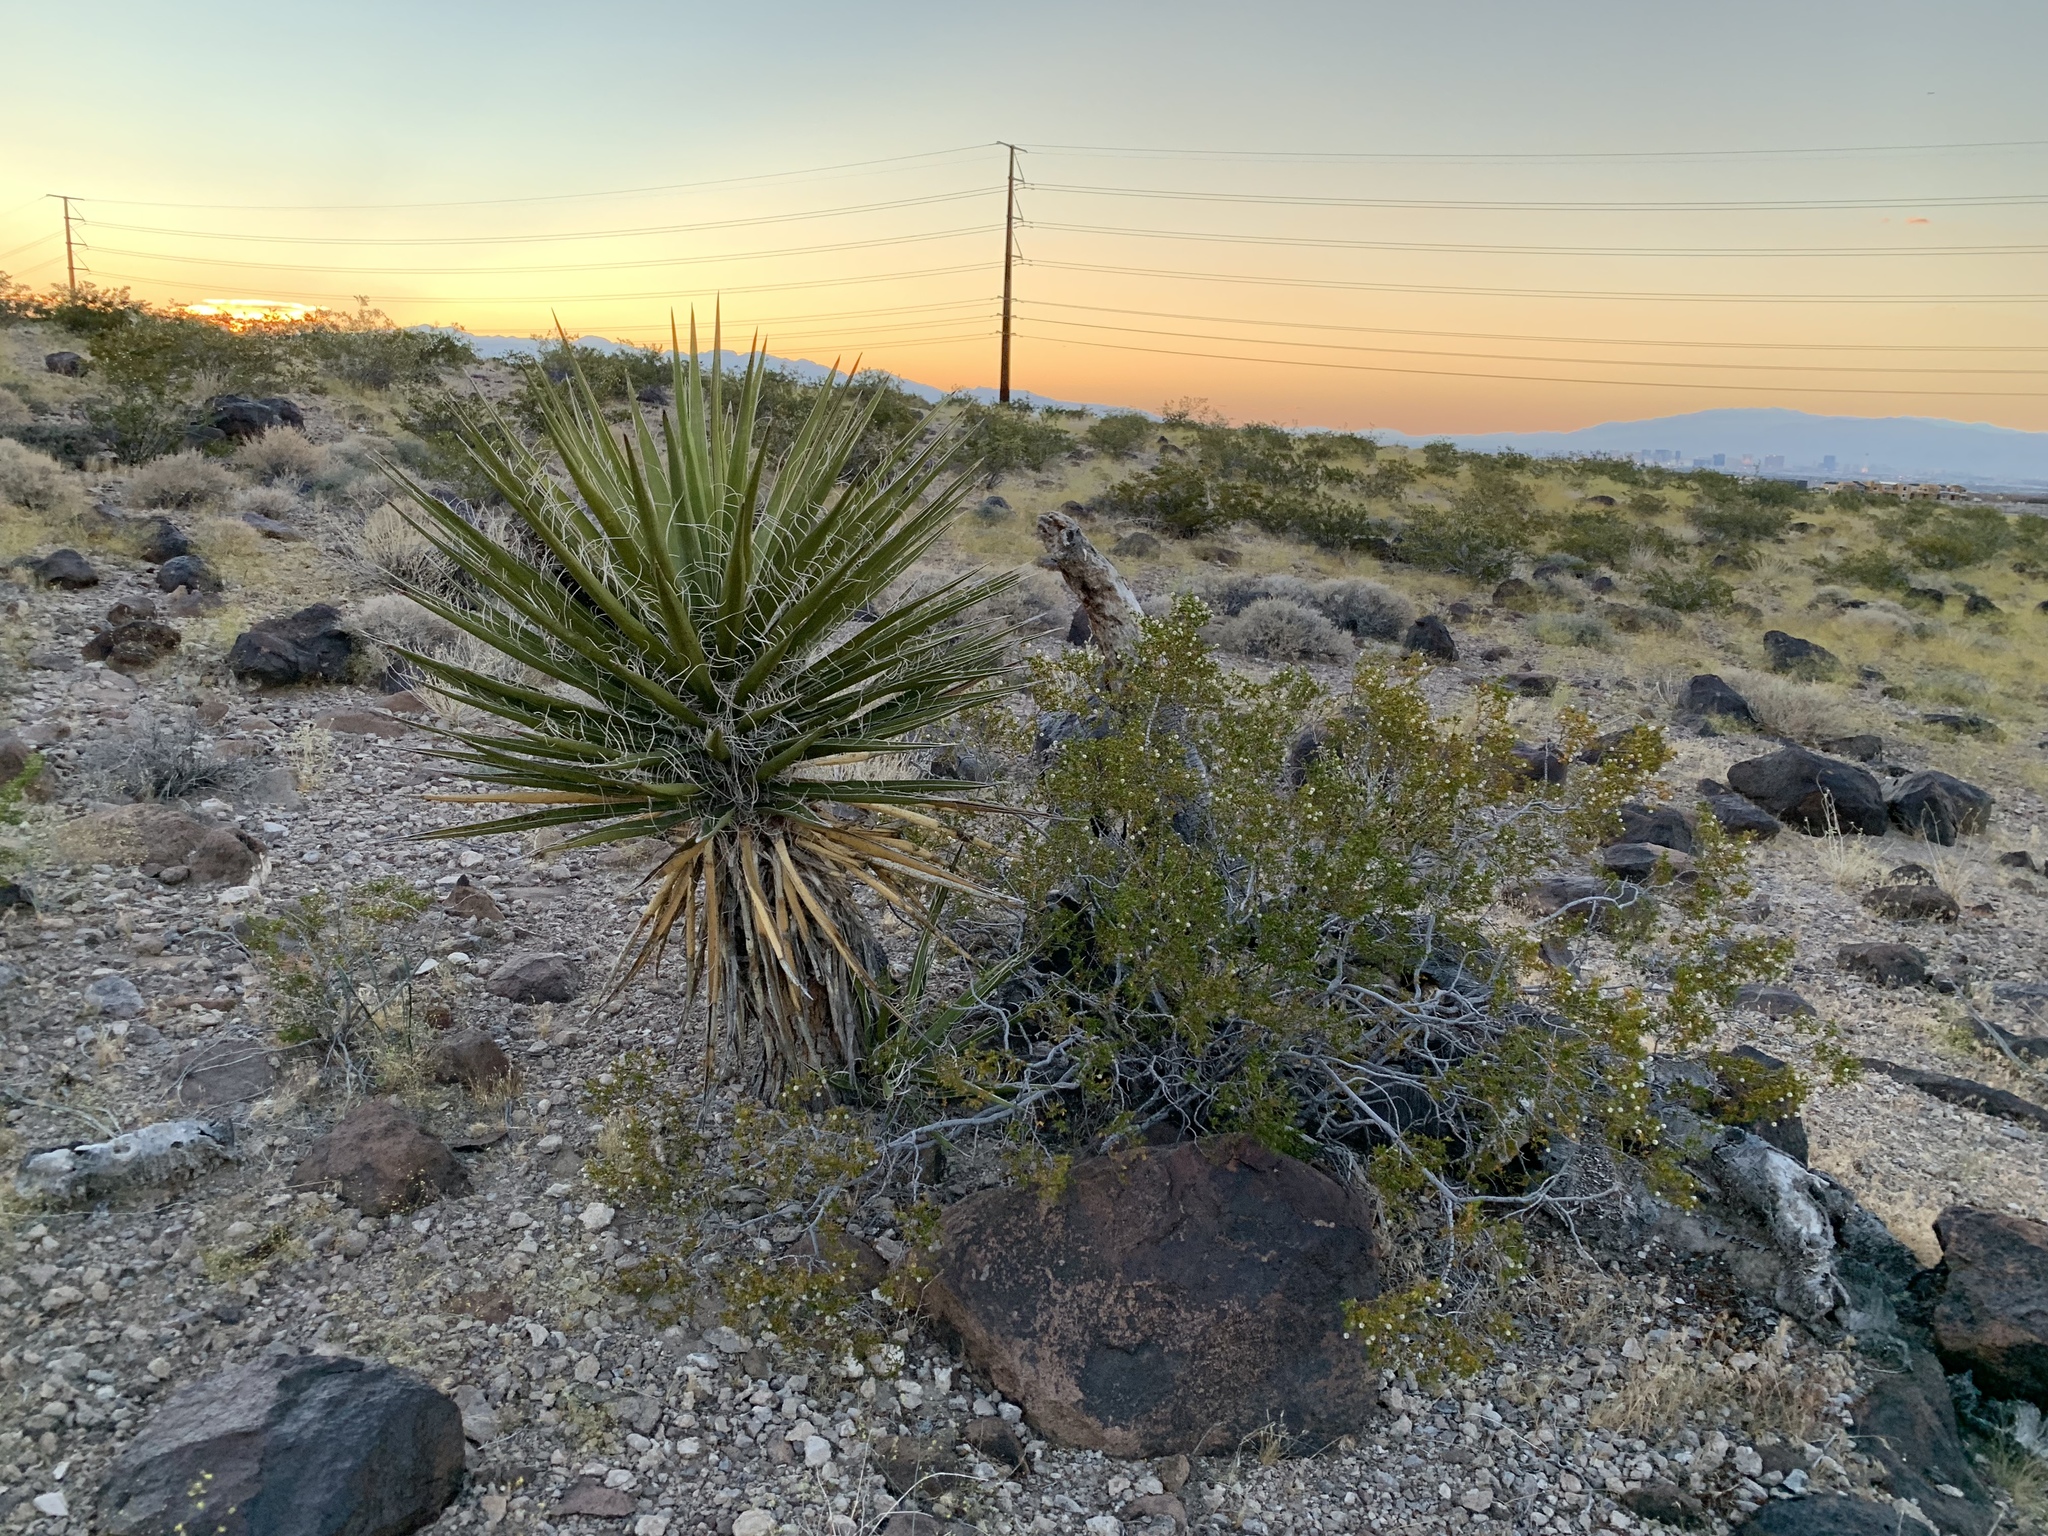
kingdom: Plantae
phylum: Tracheophyta
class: Liliopsida
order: Asparagales
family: Asparagaceae
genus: Yucca
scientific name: Yucca schidigera
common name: Mojave yucca
